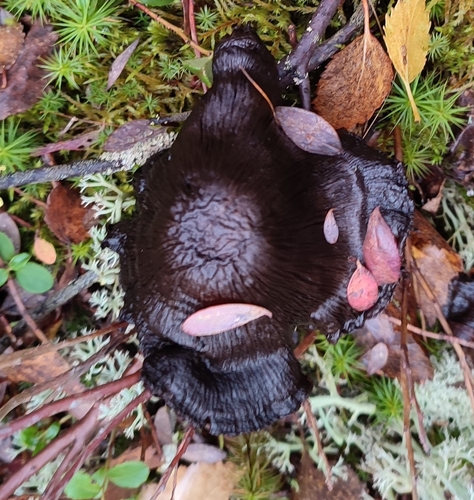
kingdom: Fungi
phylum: Basidiomycota
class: Agaricomycetes
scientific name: Agaricomycetes
